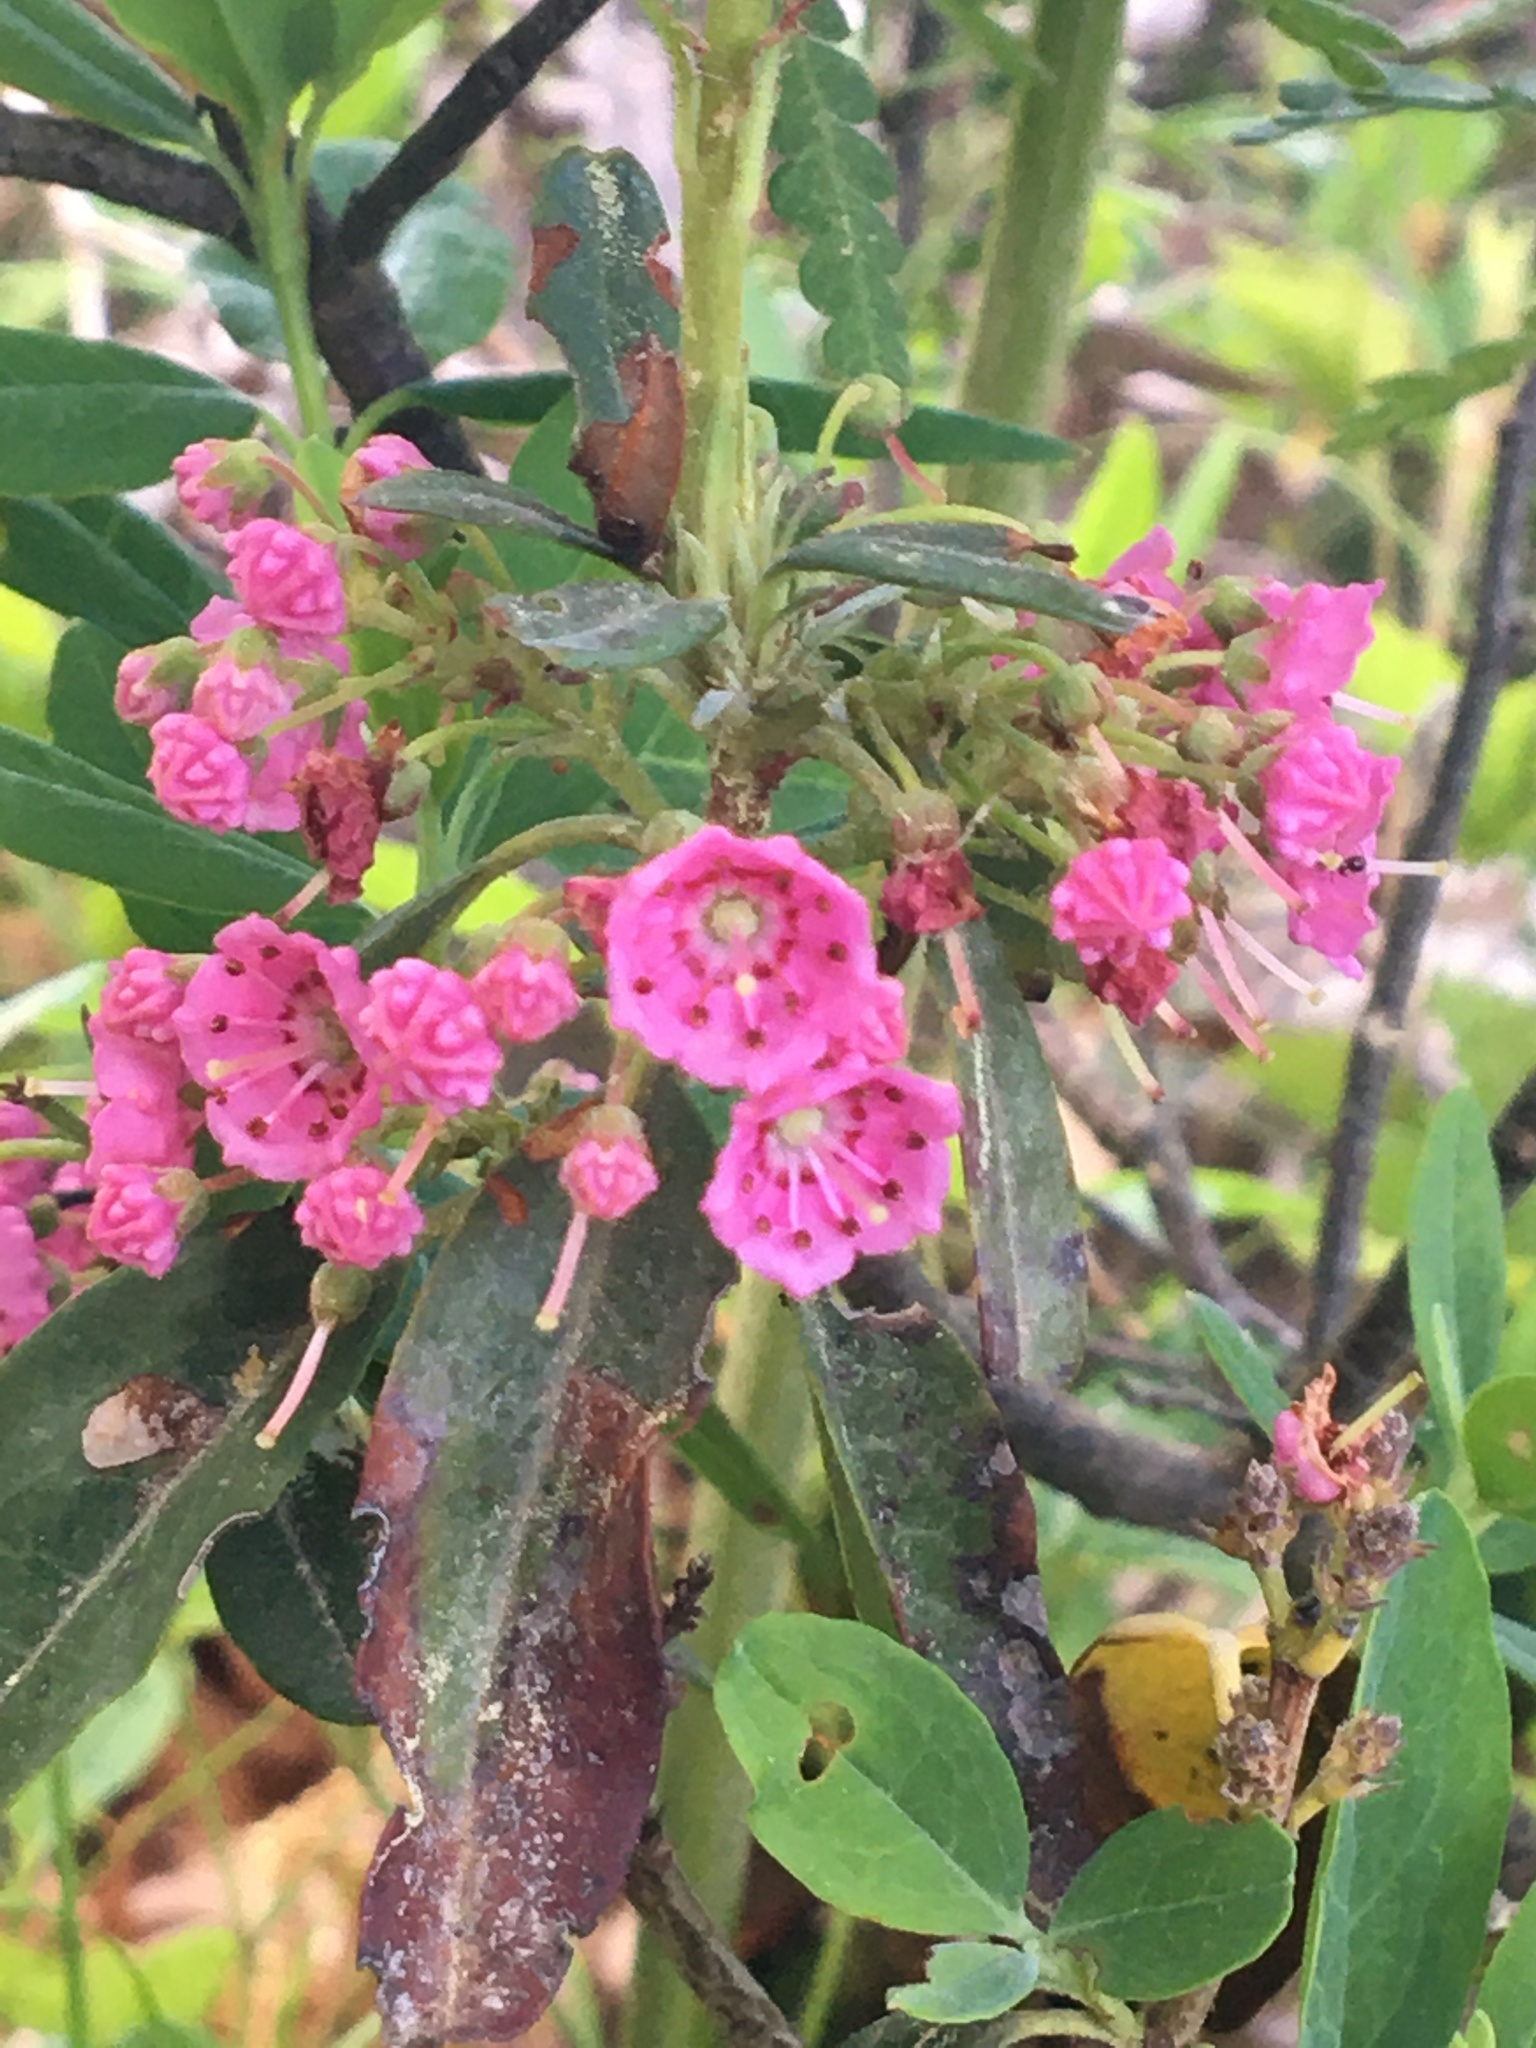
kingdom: Plantae
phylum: Tracheophyta
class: Magnoliopsida
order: Ericales
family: Ericaceae
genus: Kalmia
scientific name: Kalmia angustifolia
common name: Sheep-laurel
